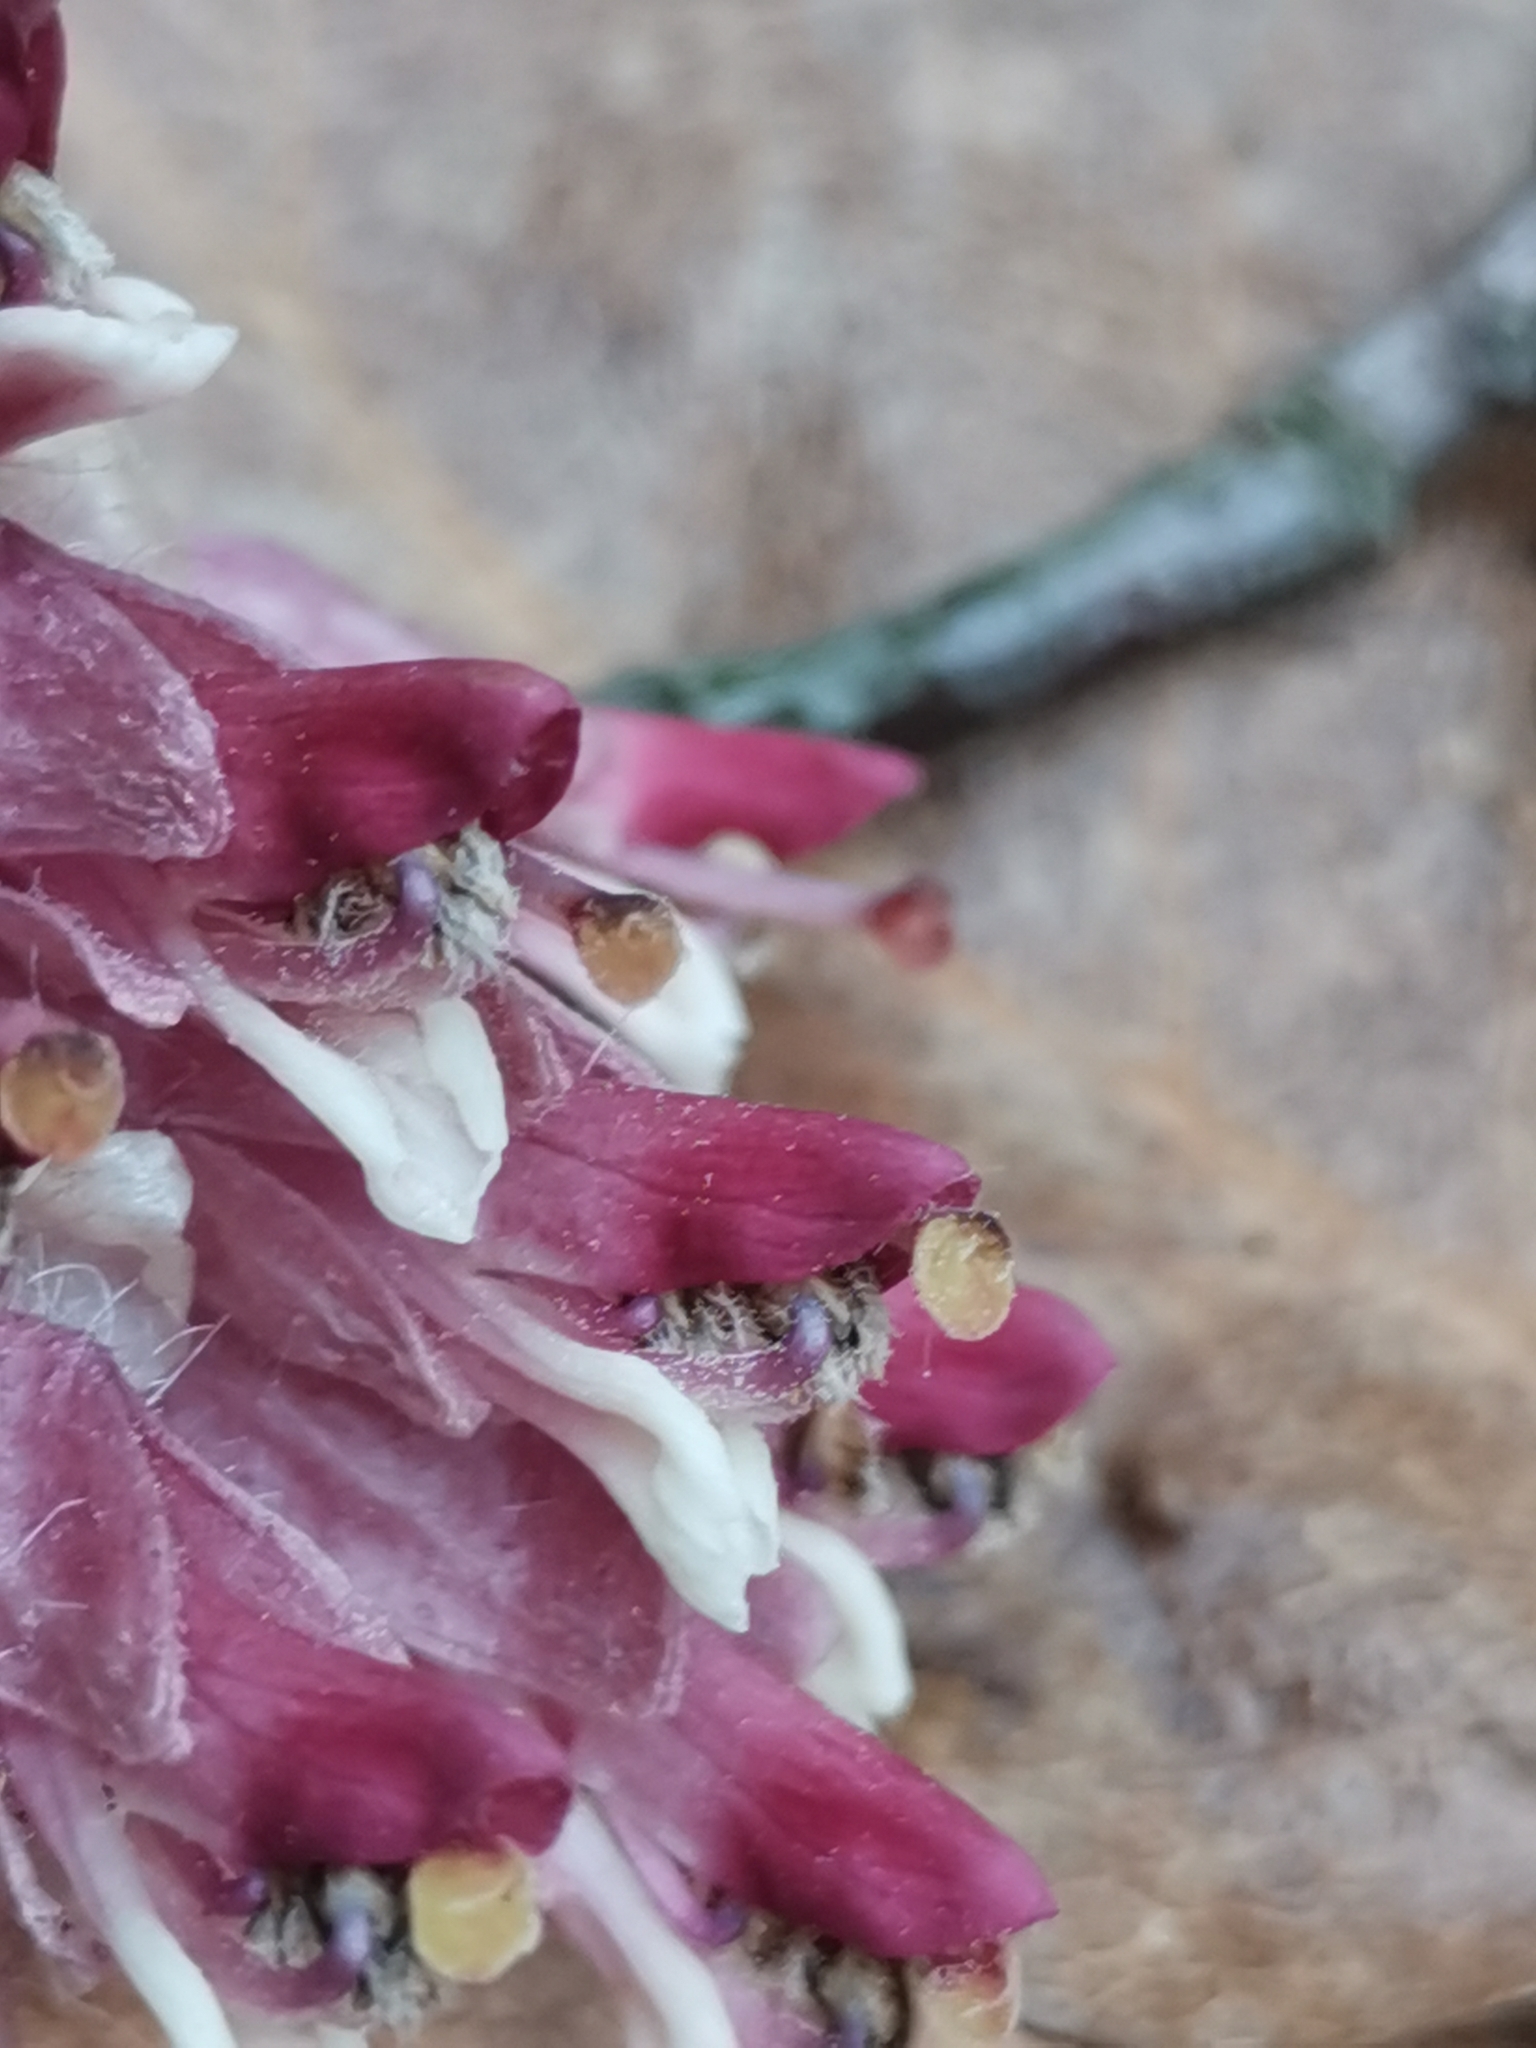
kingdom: Plantae
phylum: Tracheophyta
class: Magnoliopsida
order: Lamiales
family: Orobanchaceae
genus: Lathraea
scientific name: Lathraea squamaria
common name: Toothwort
